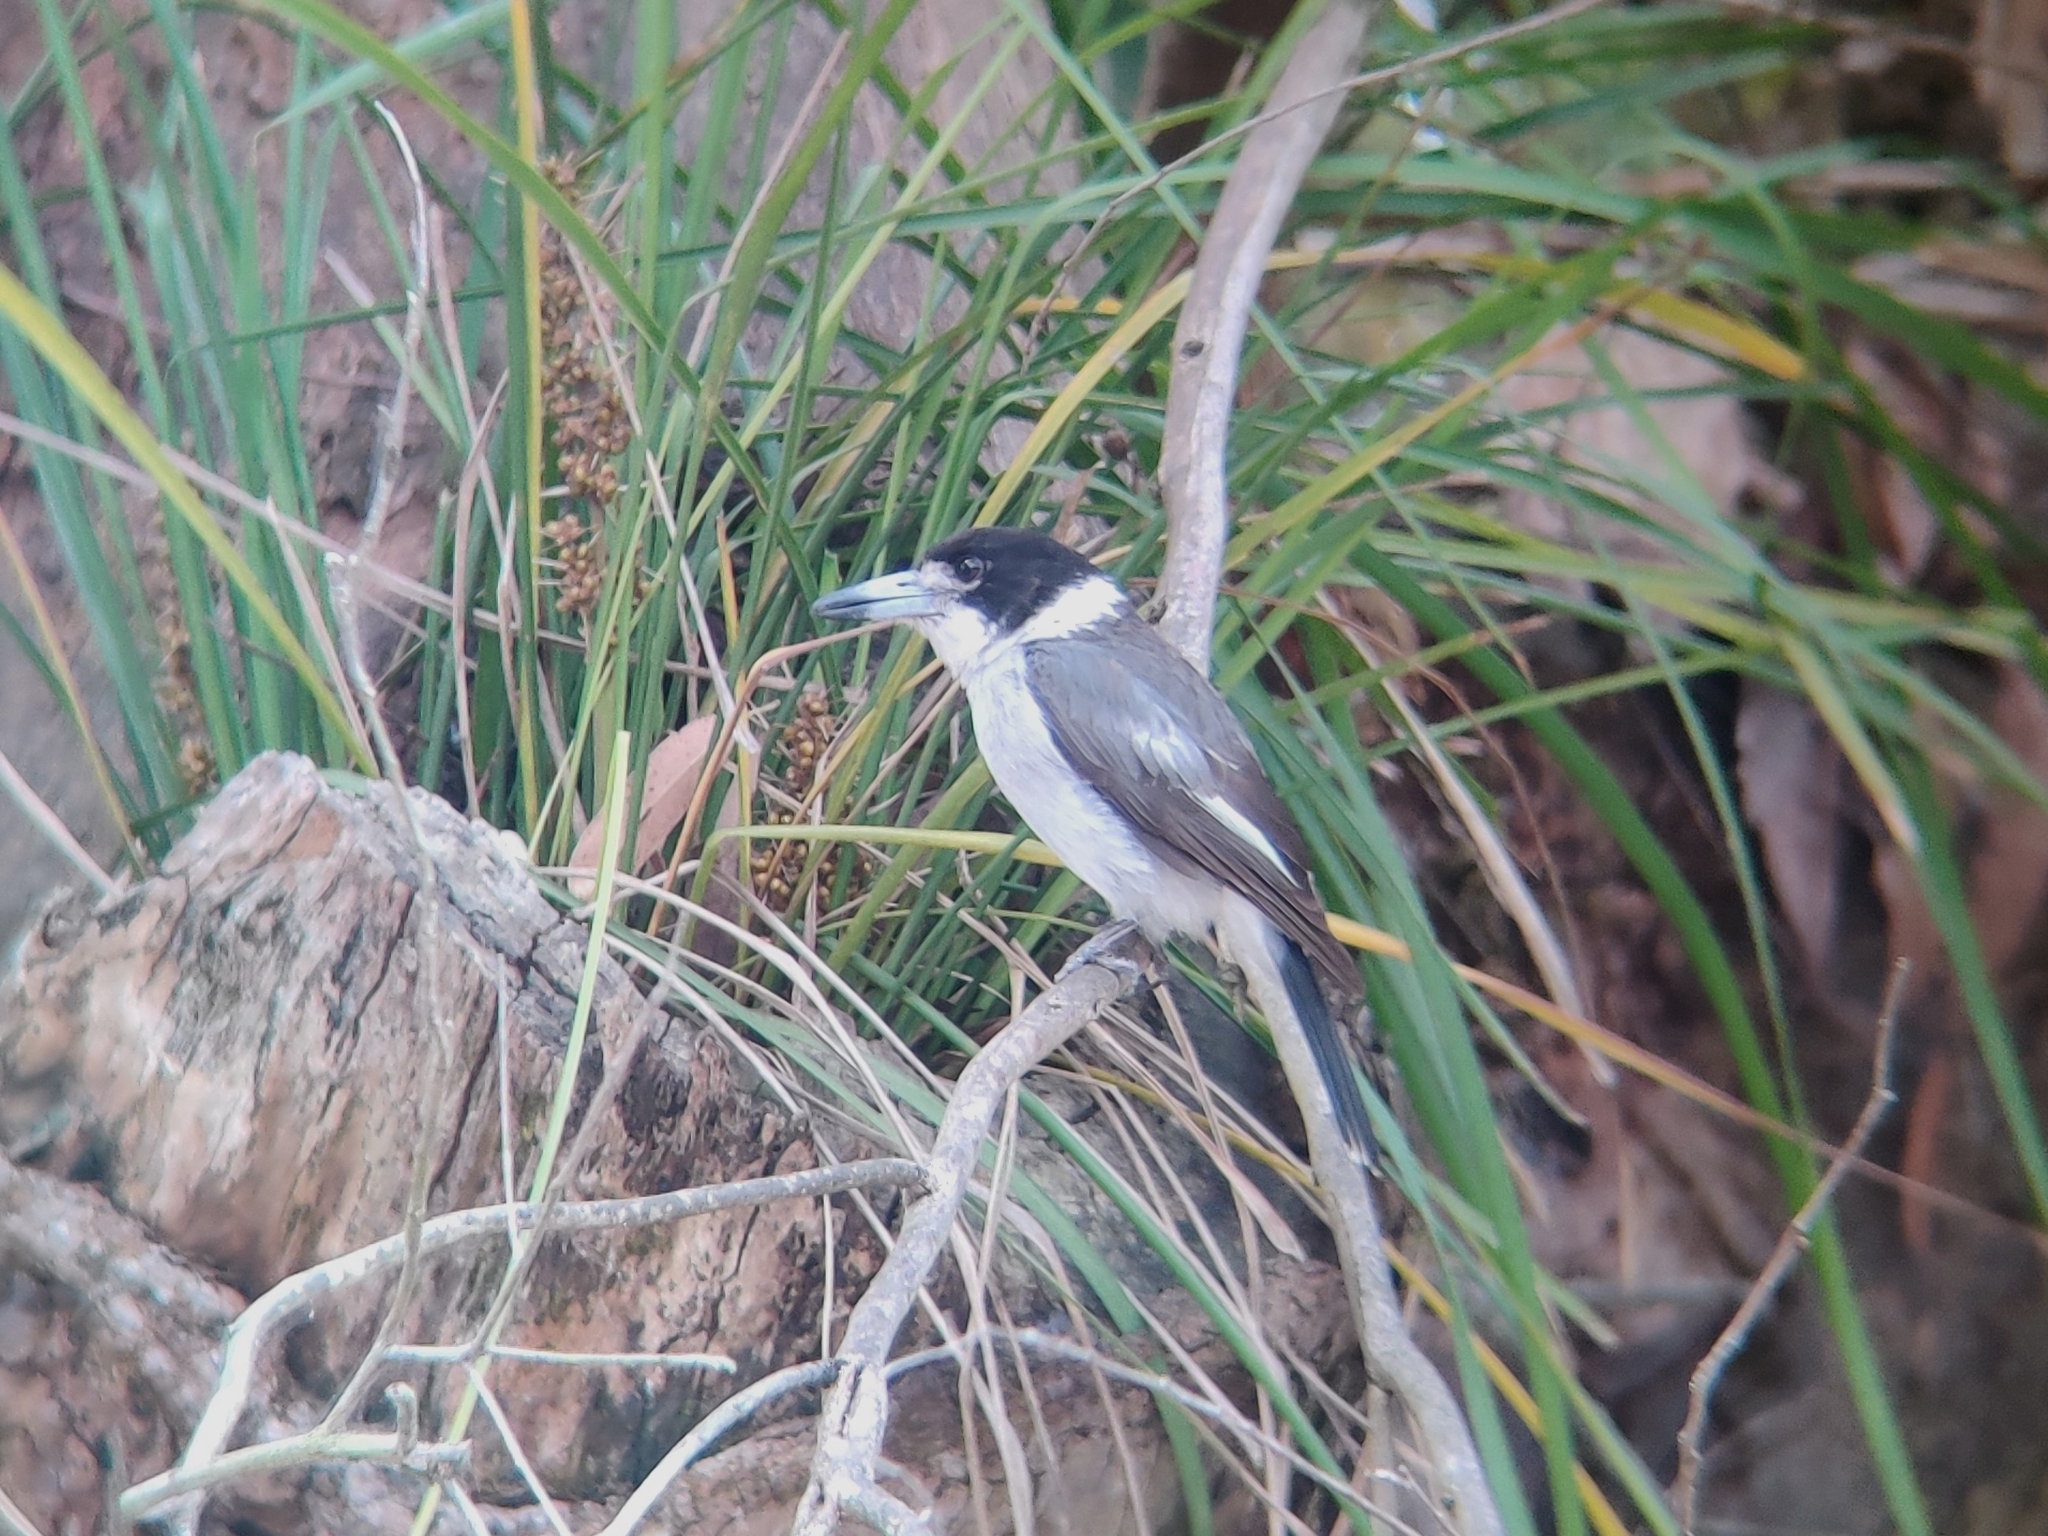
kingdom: Animalia
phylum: Chordata
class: Aves
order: Passeriformes
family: Cracticidae
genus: Cracticus
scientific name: Cracticus torquatus
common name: Grey butcherbird
